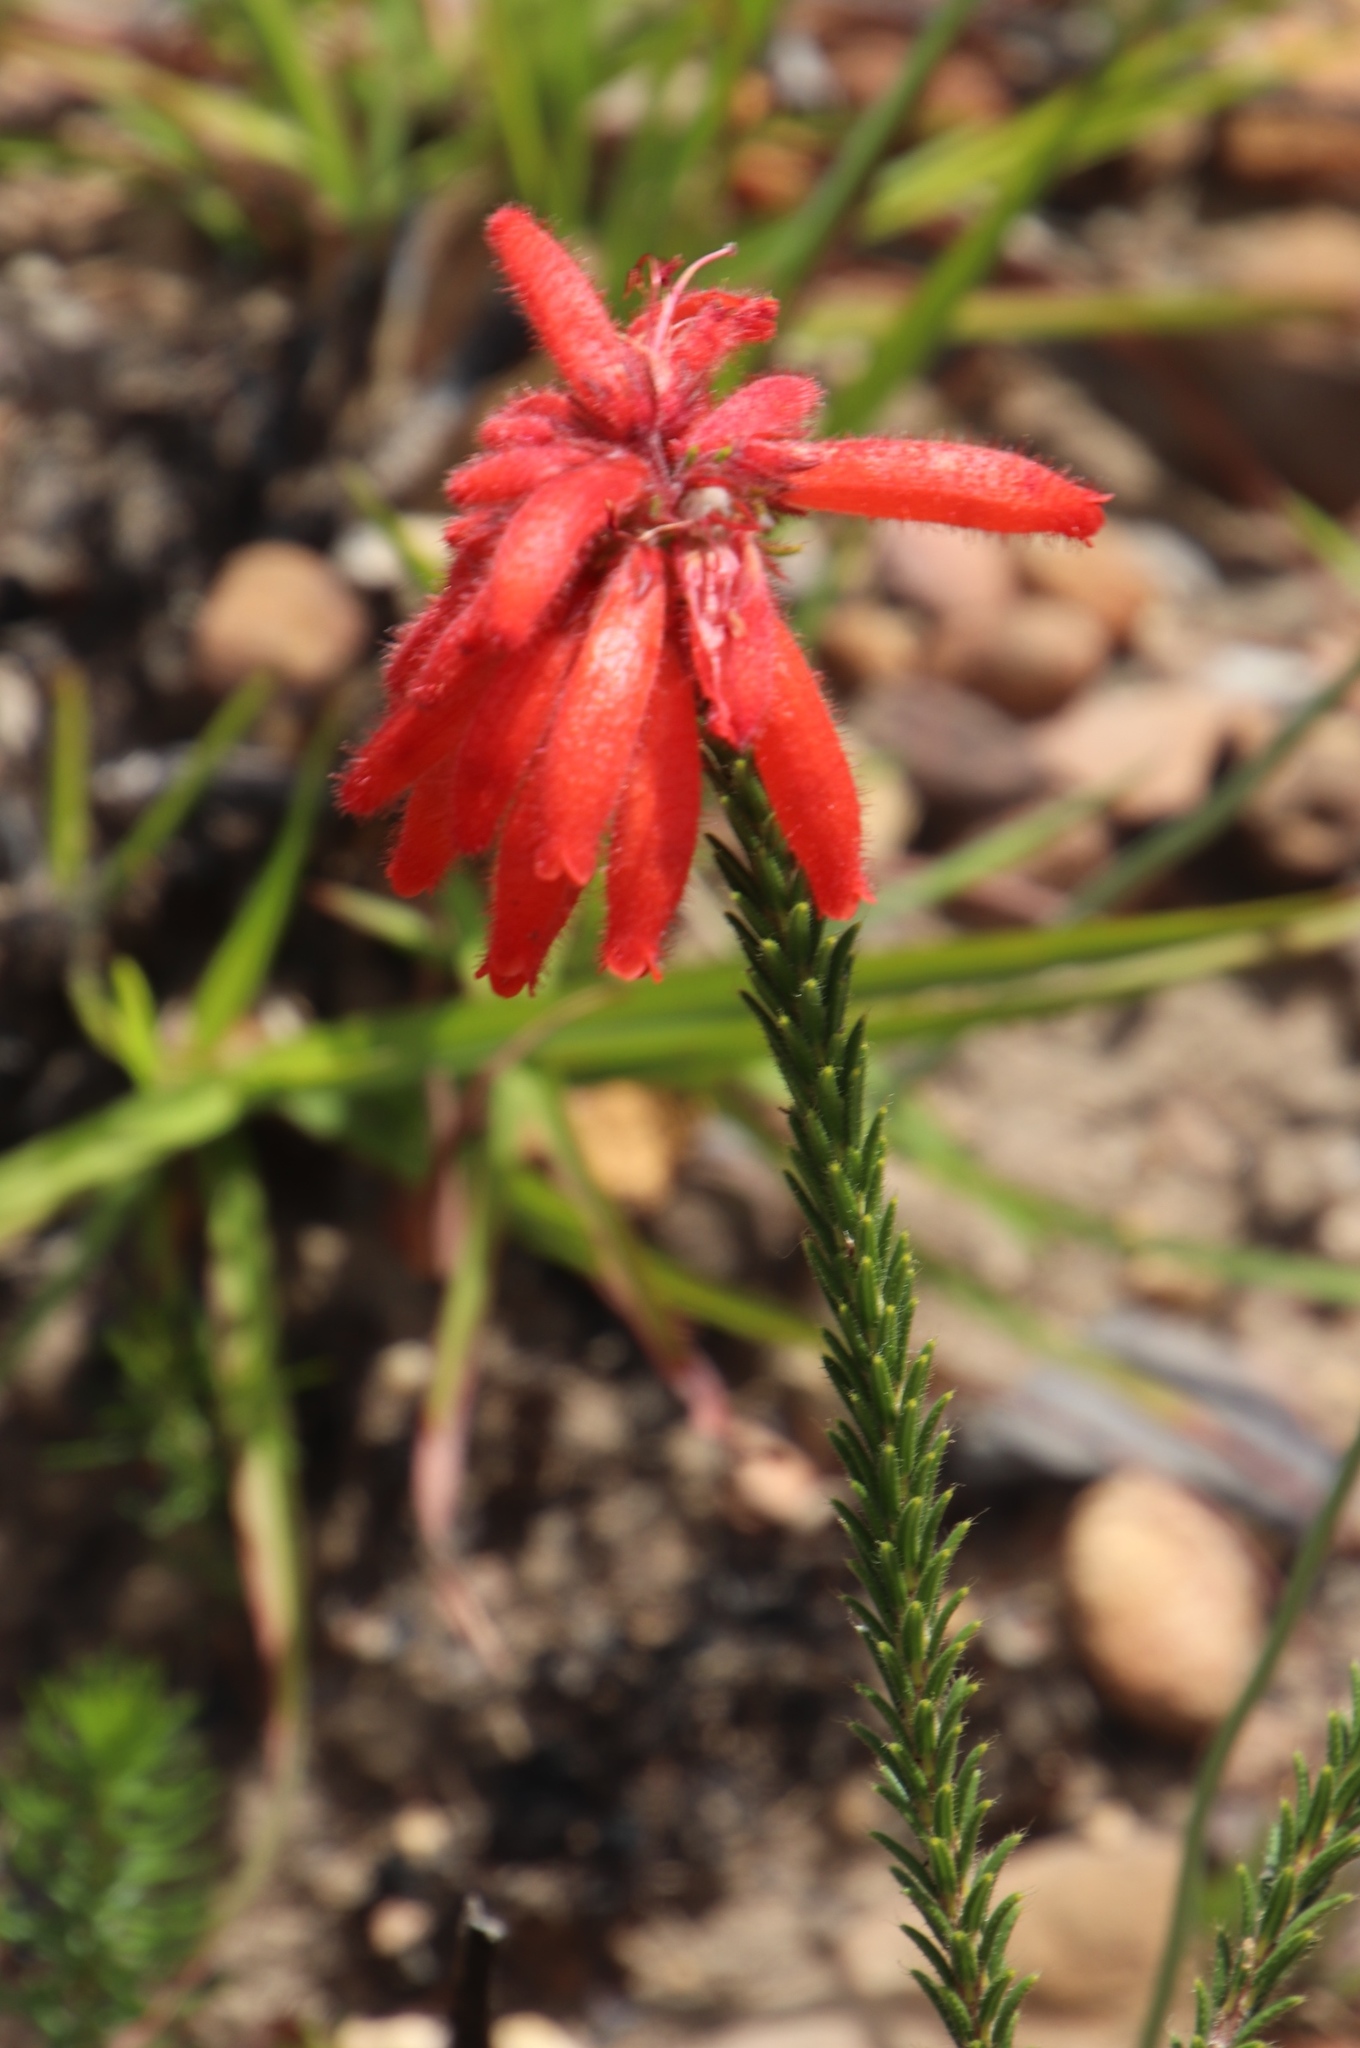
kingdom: Plantae
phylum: Tracheophyta
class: Magnoliopsida
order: Ericales
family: Ericaceae
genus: Erica
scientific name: Erica cerinthoides
